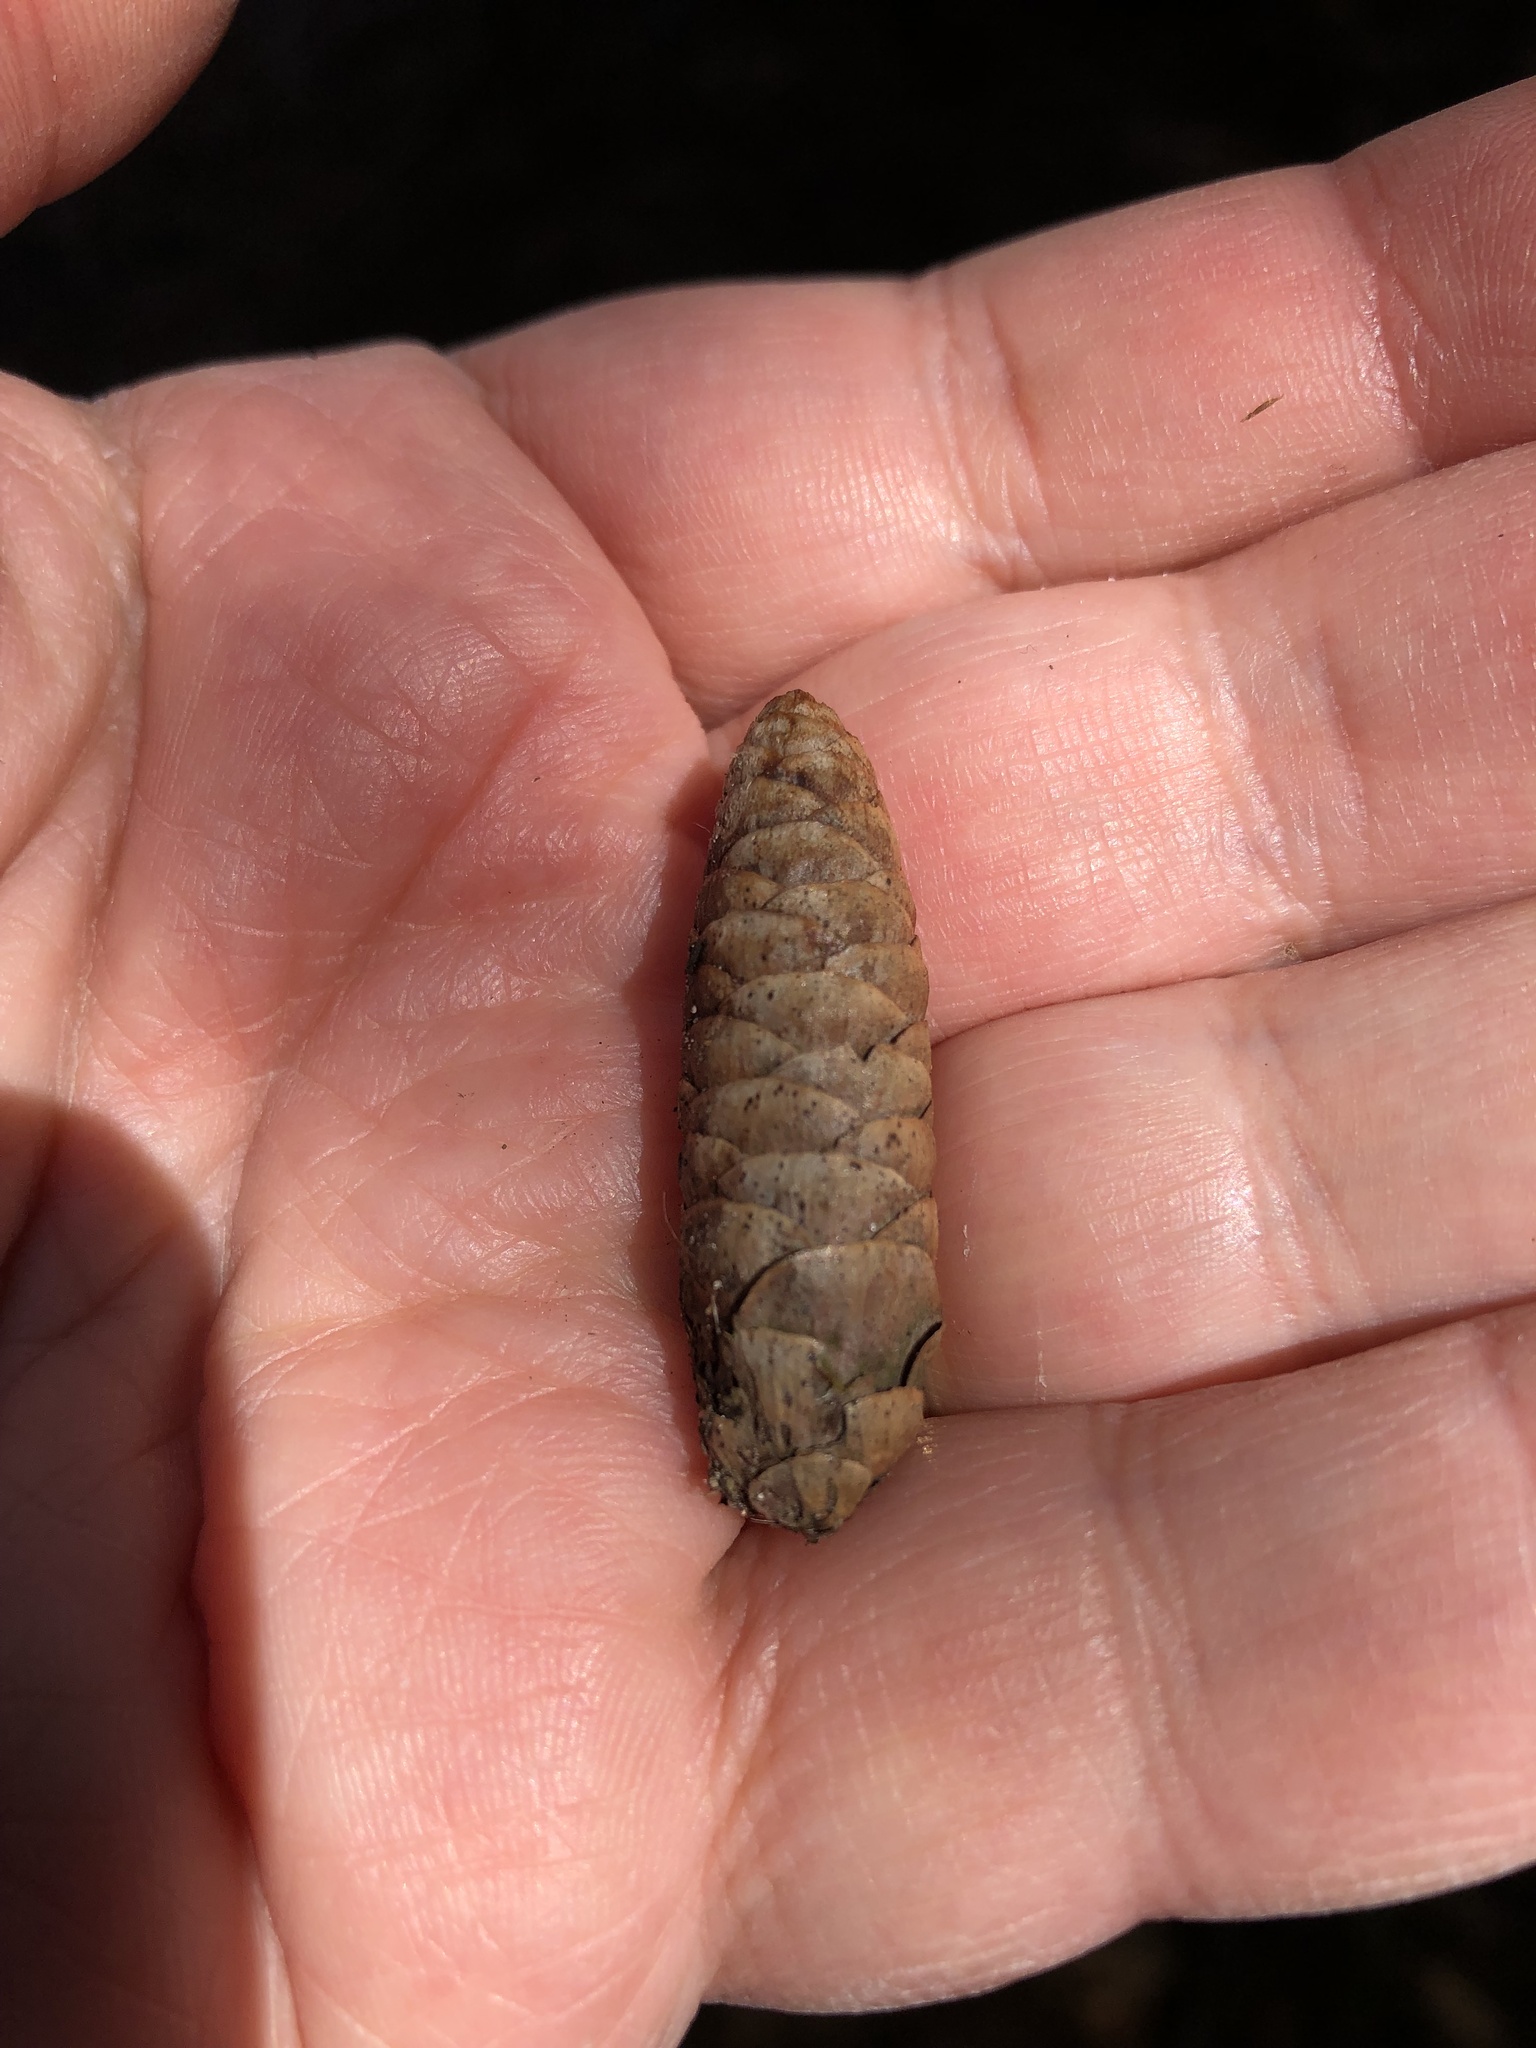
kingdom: Plantae
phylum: Tracheophyta
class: Pinopsida
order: Pinales
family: Pinaceae
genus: Picea
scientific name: Picea glauca
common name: White spruce
